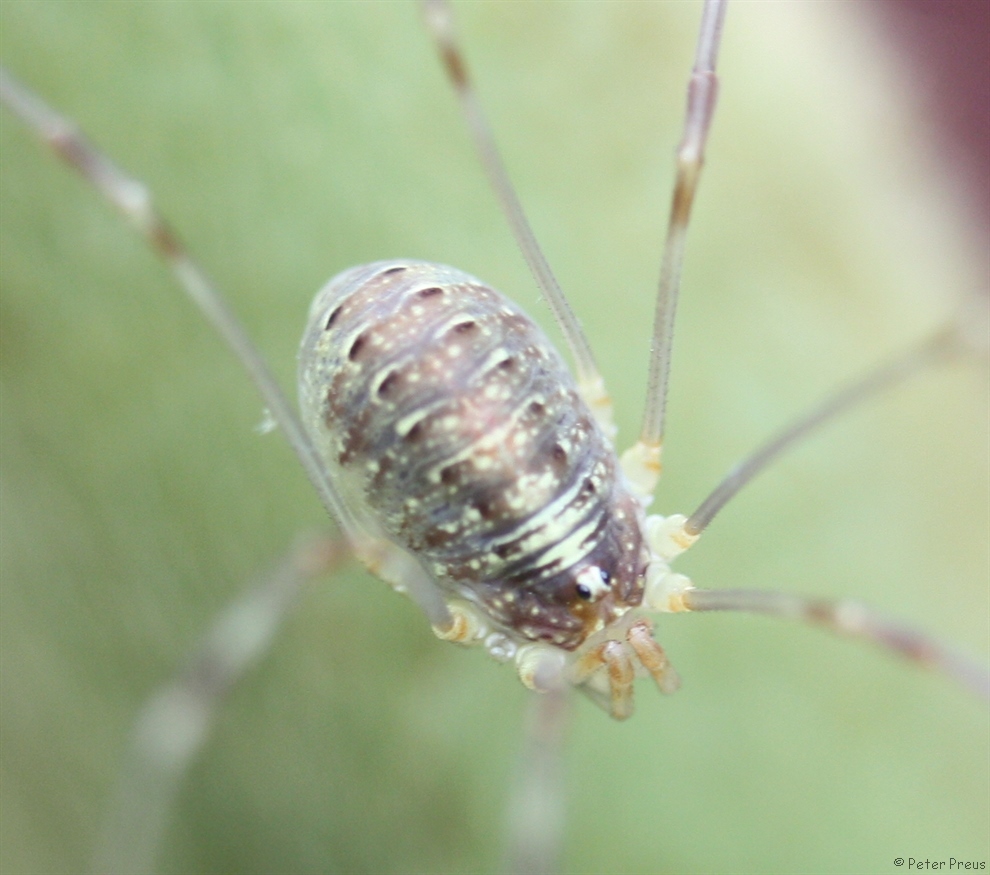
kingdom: Animalia
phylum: Arthropoda
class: Arachnida
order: Opiliones
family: Phalangiidae
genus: Opilio
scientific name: Opilio canestrinii
